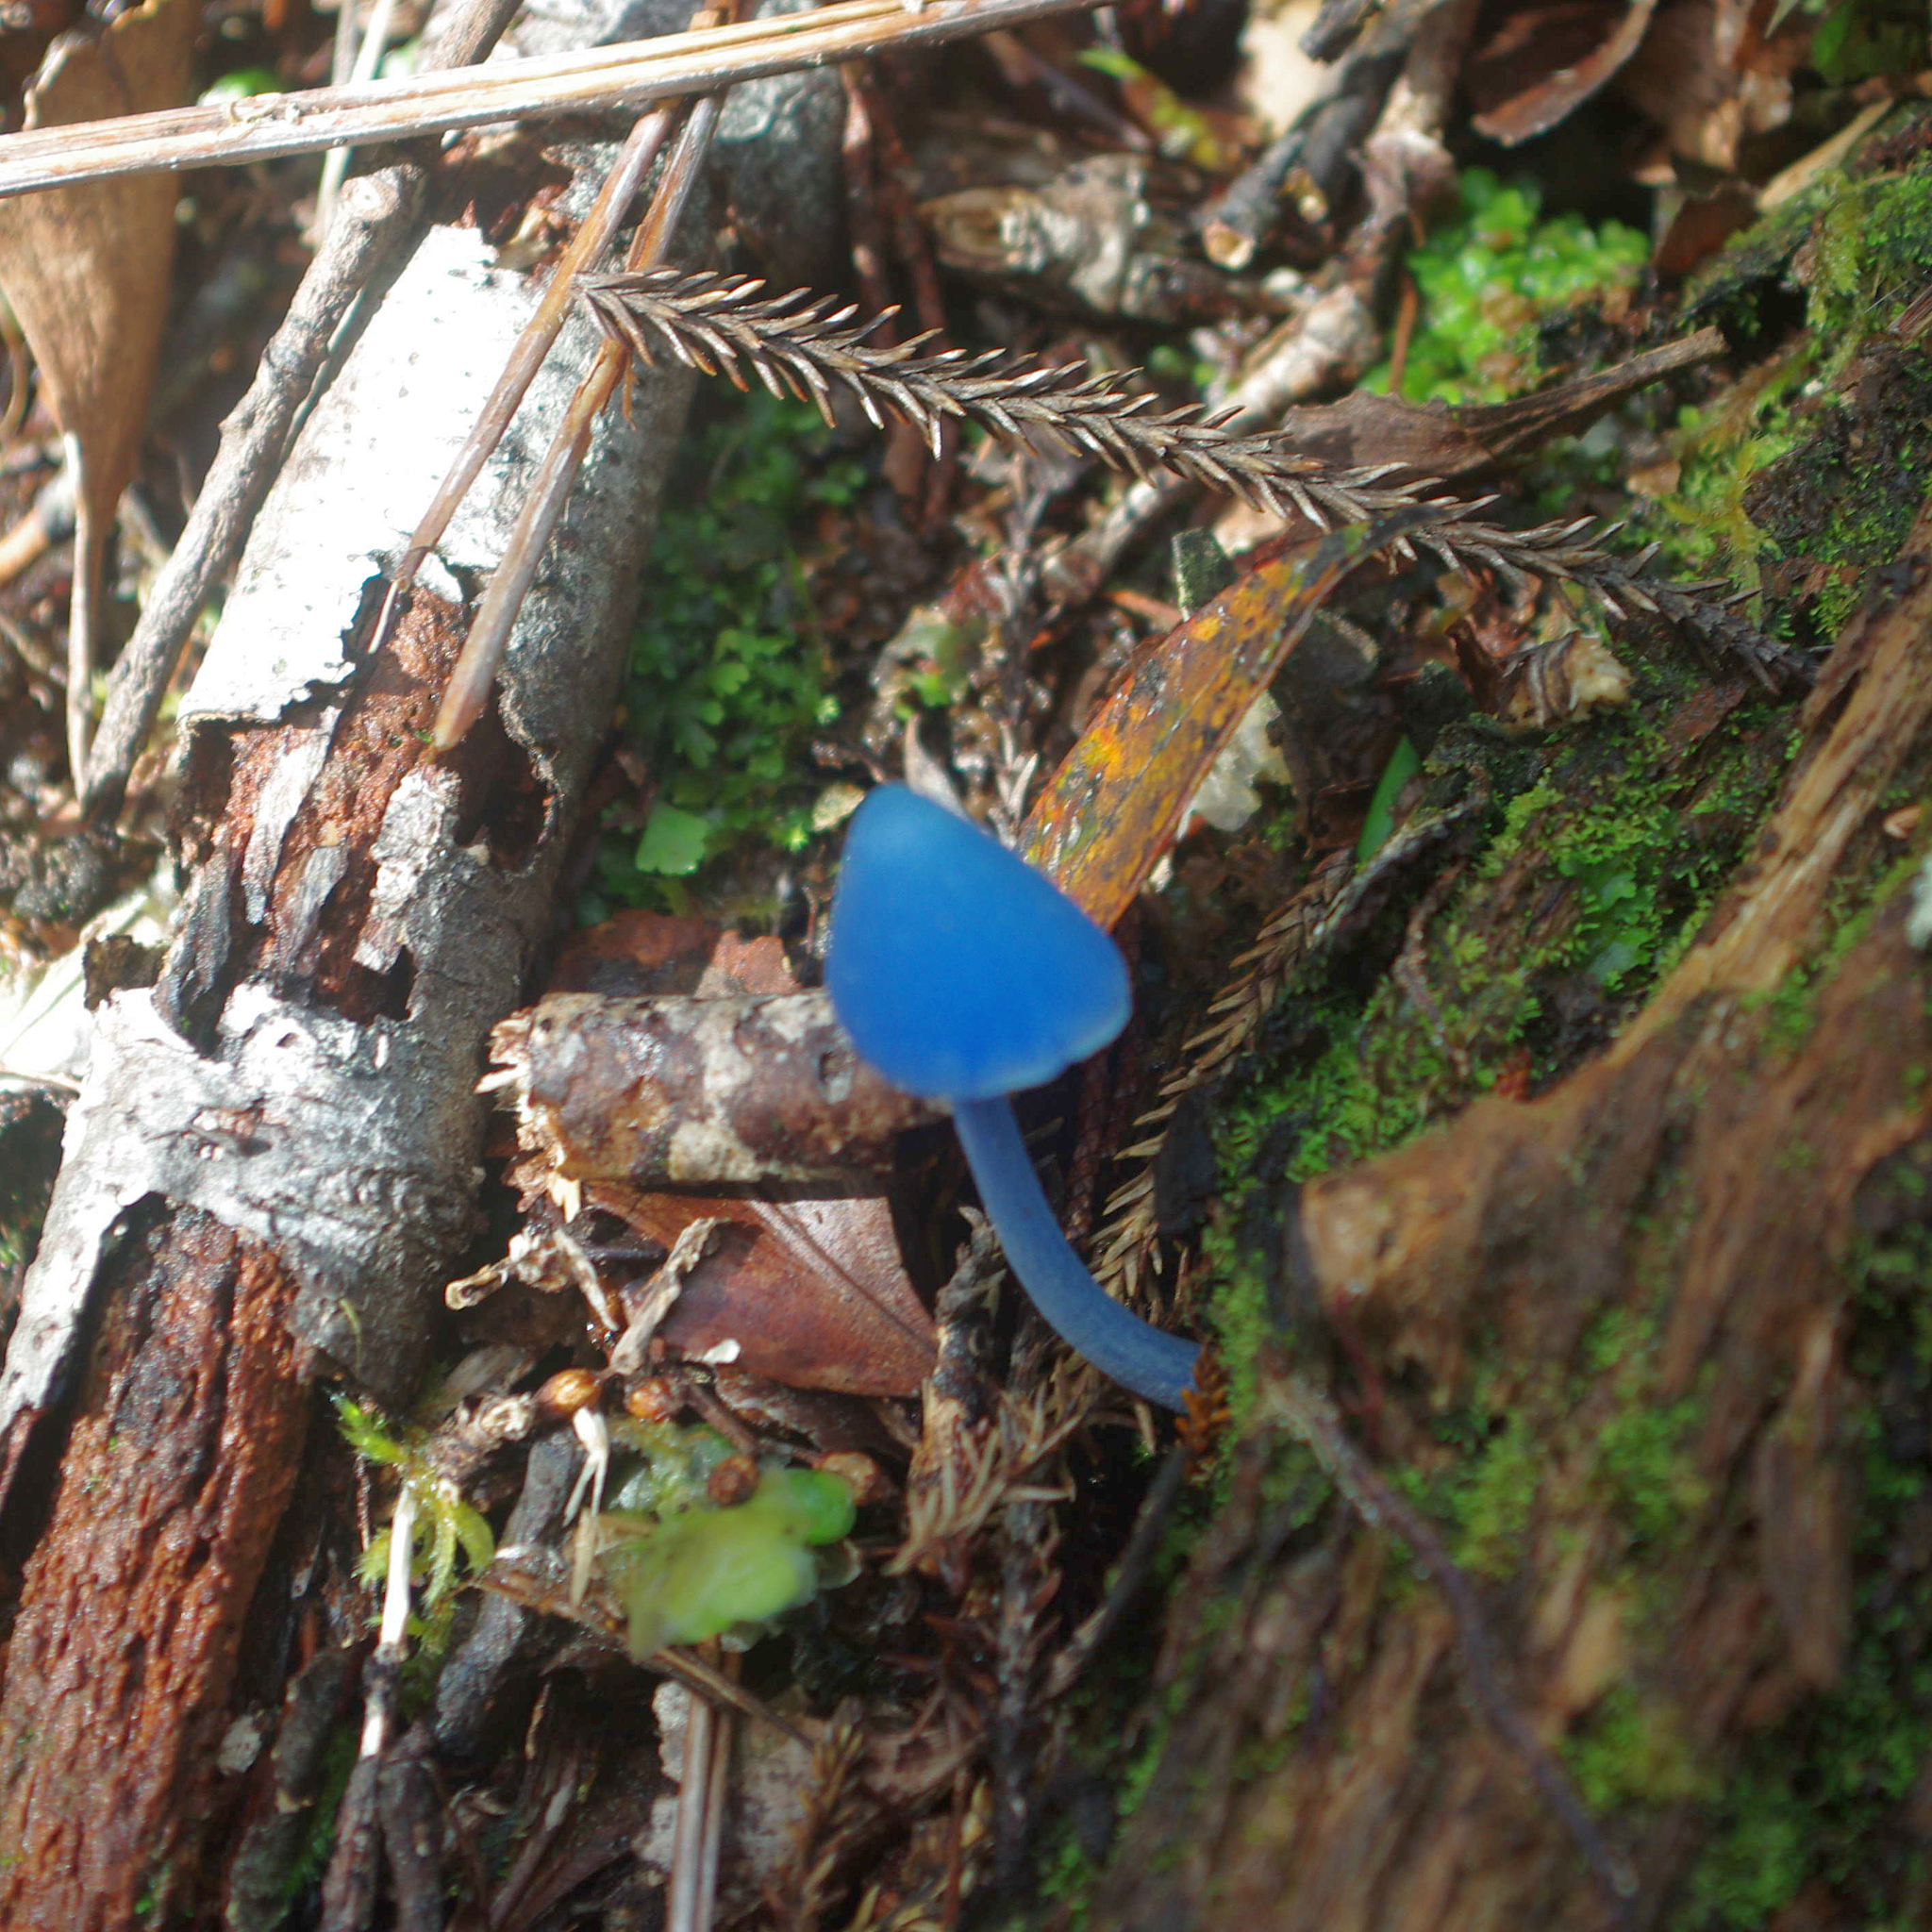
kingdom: Fungi
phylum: Basidiomycota
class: Agaricomycetes
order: Agaricales
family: Entolomataceae
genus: Entoloma
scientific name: Entoloma hochstetteri
